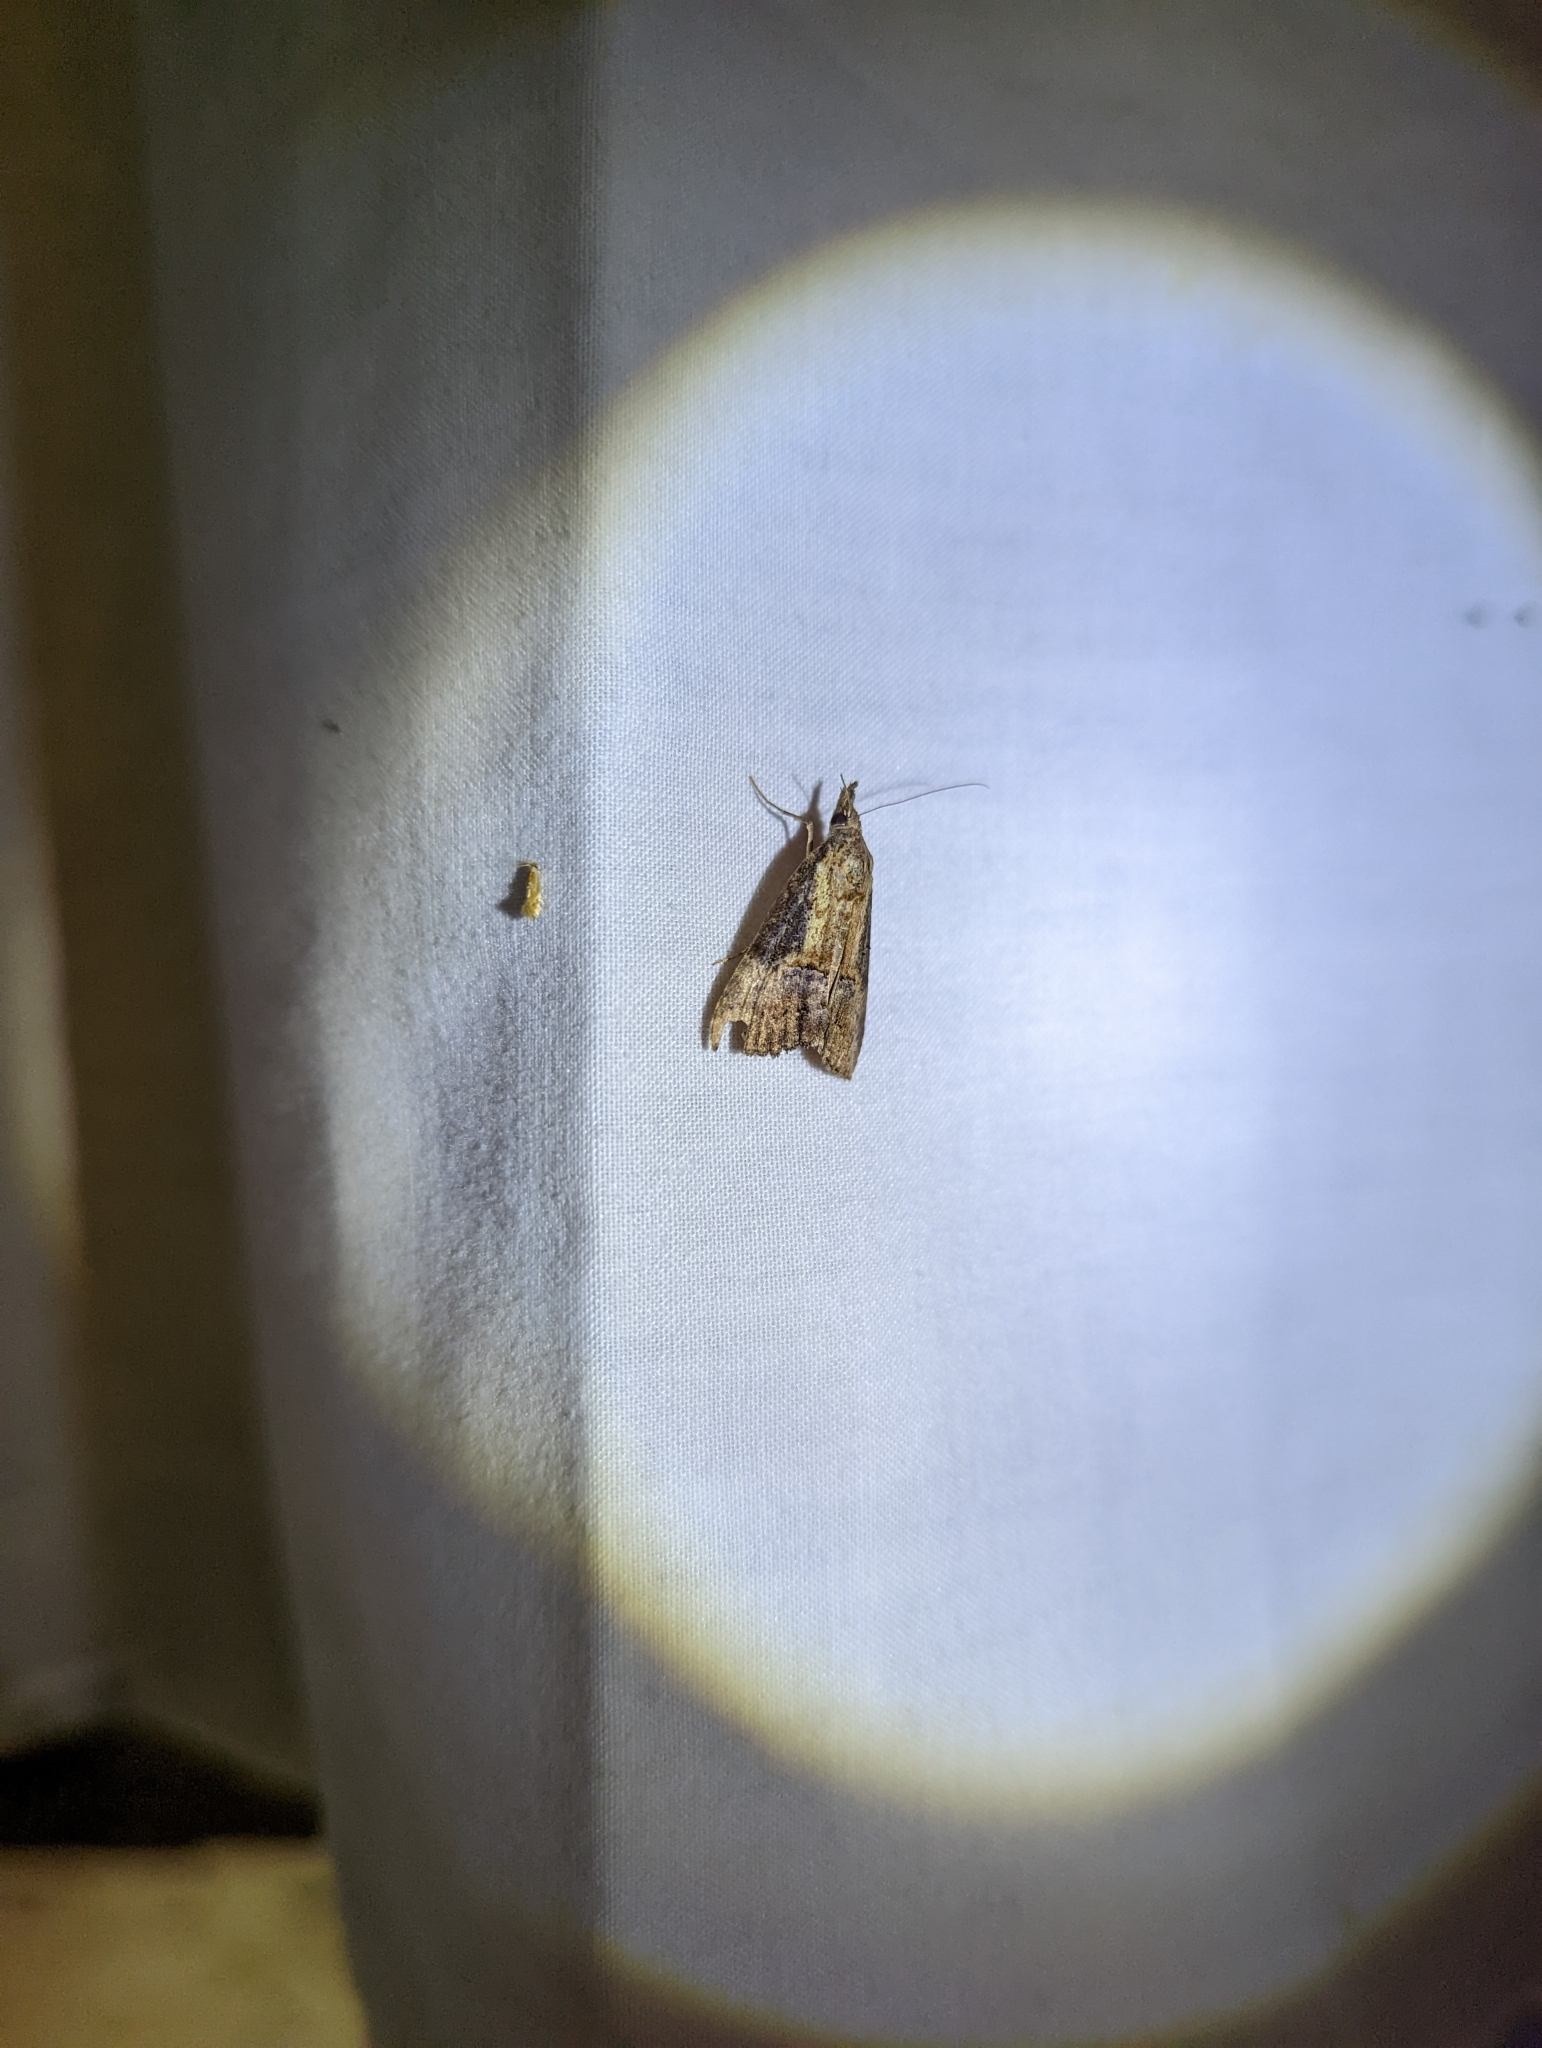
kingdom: Animalia
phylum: Arthropoda
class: Insecta
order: Lepidoptera
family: Erebidae
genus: Hypena
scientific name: Hypena scabra
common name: Green cloverworm
